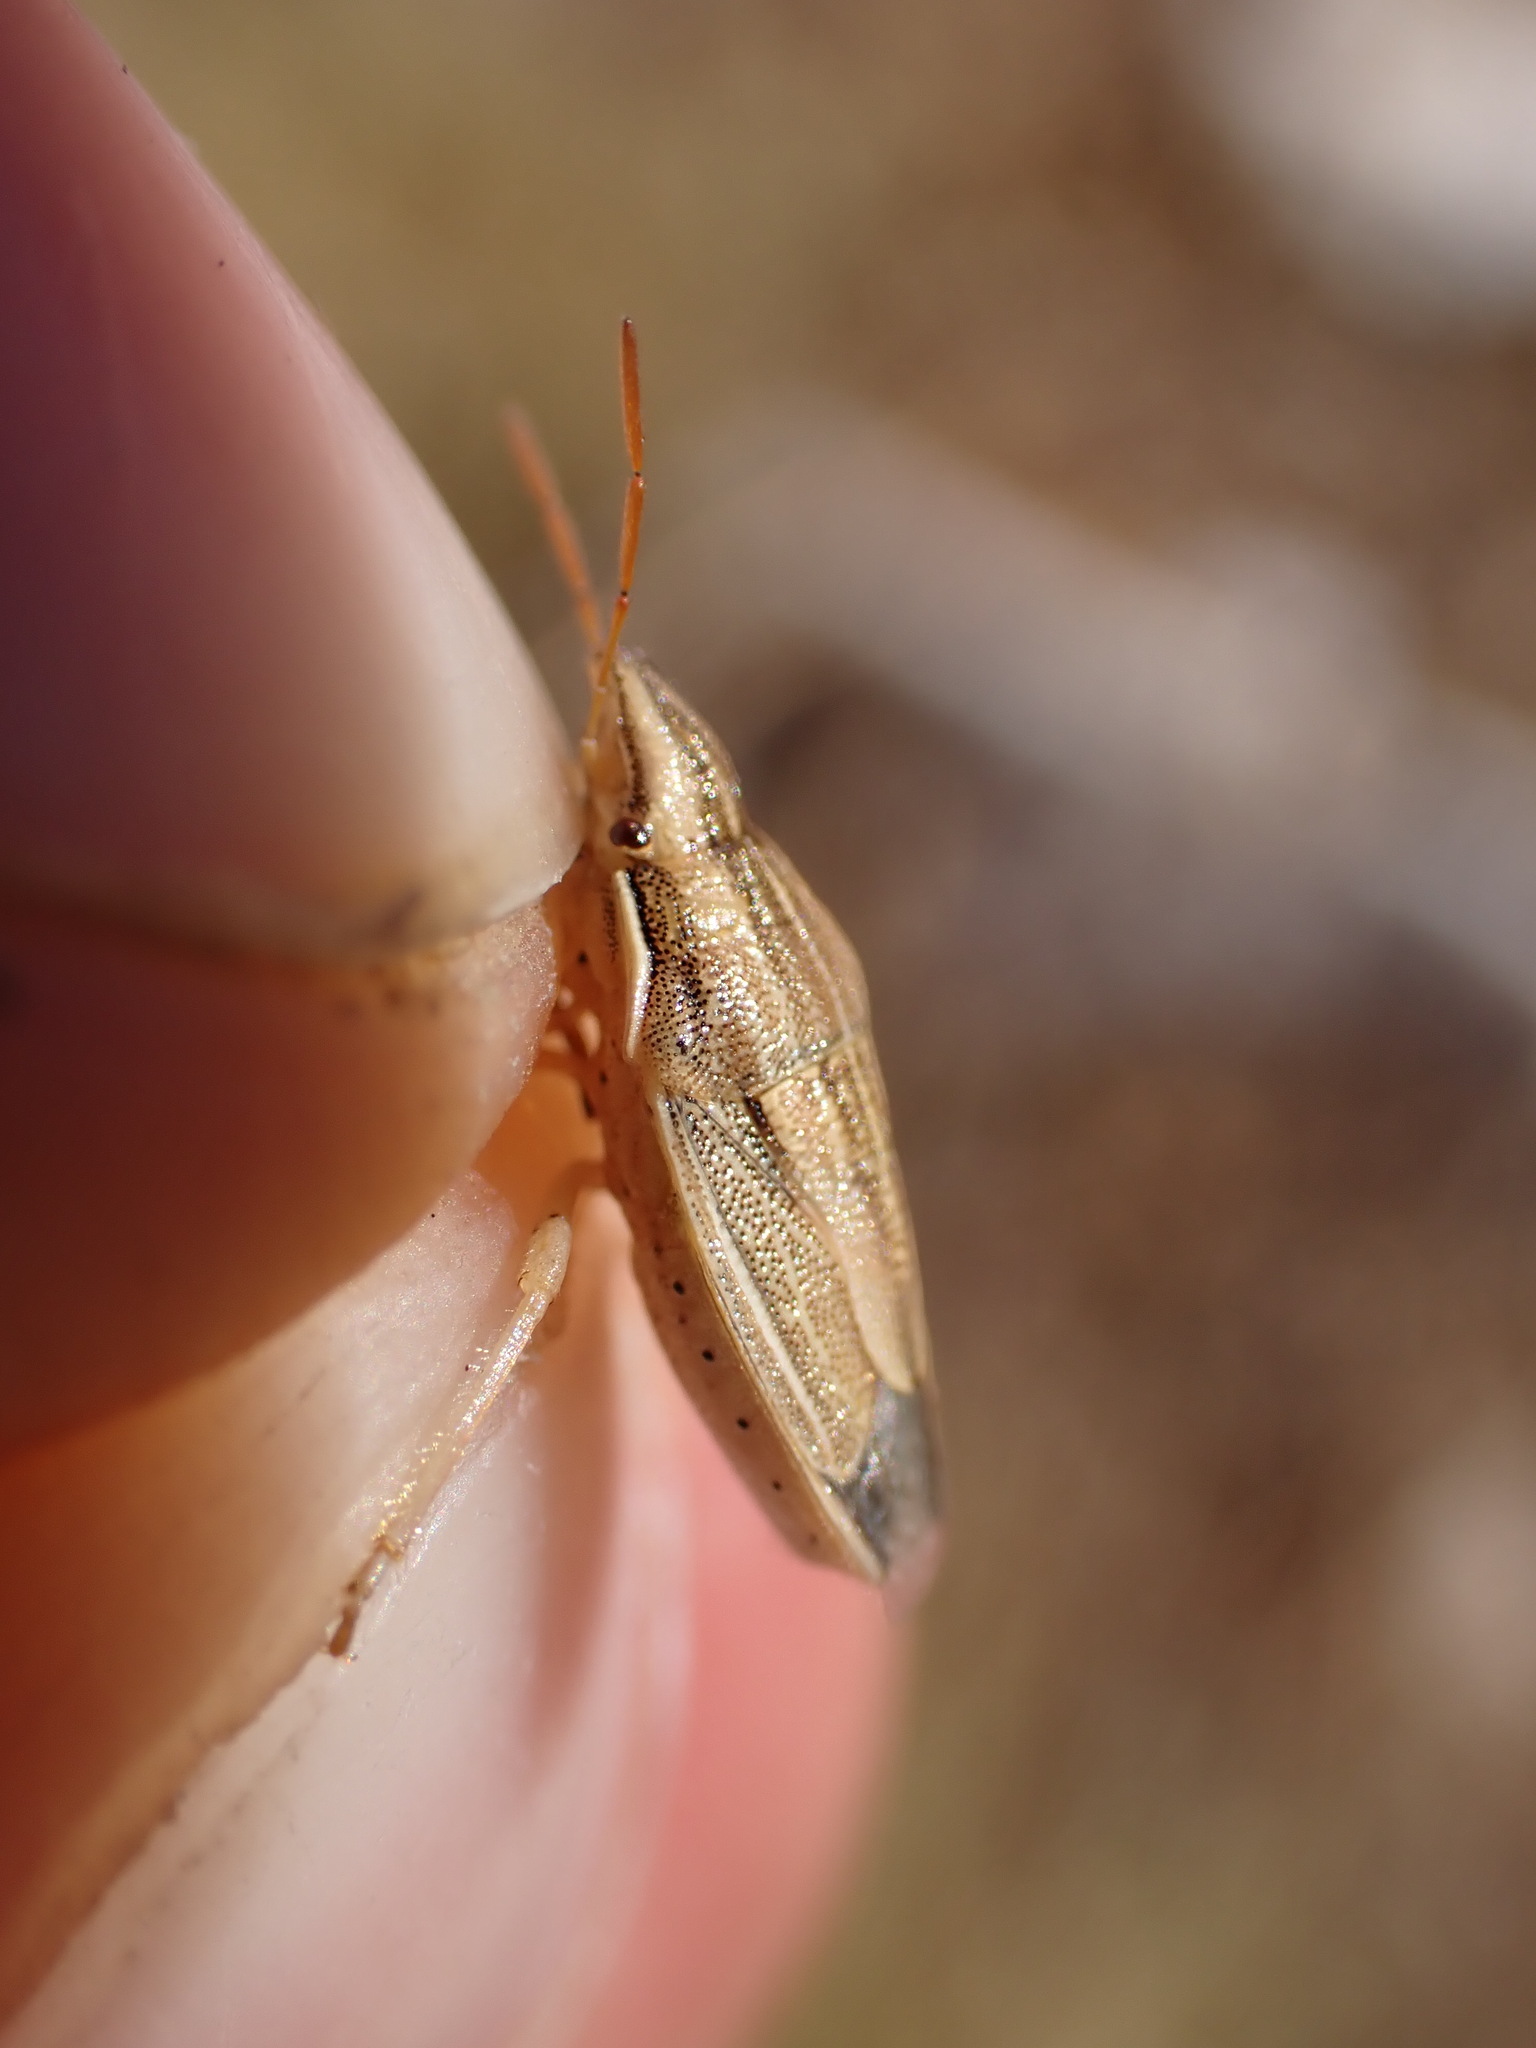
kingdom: Animalia
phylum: Arthropoda
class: Insecta
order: Hemiptera
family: Pentatomidae
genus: Aelia
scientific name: Aelia acuminata
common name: Bishop's mitre
